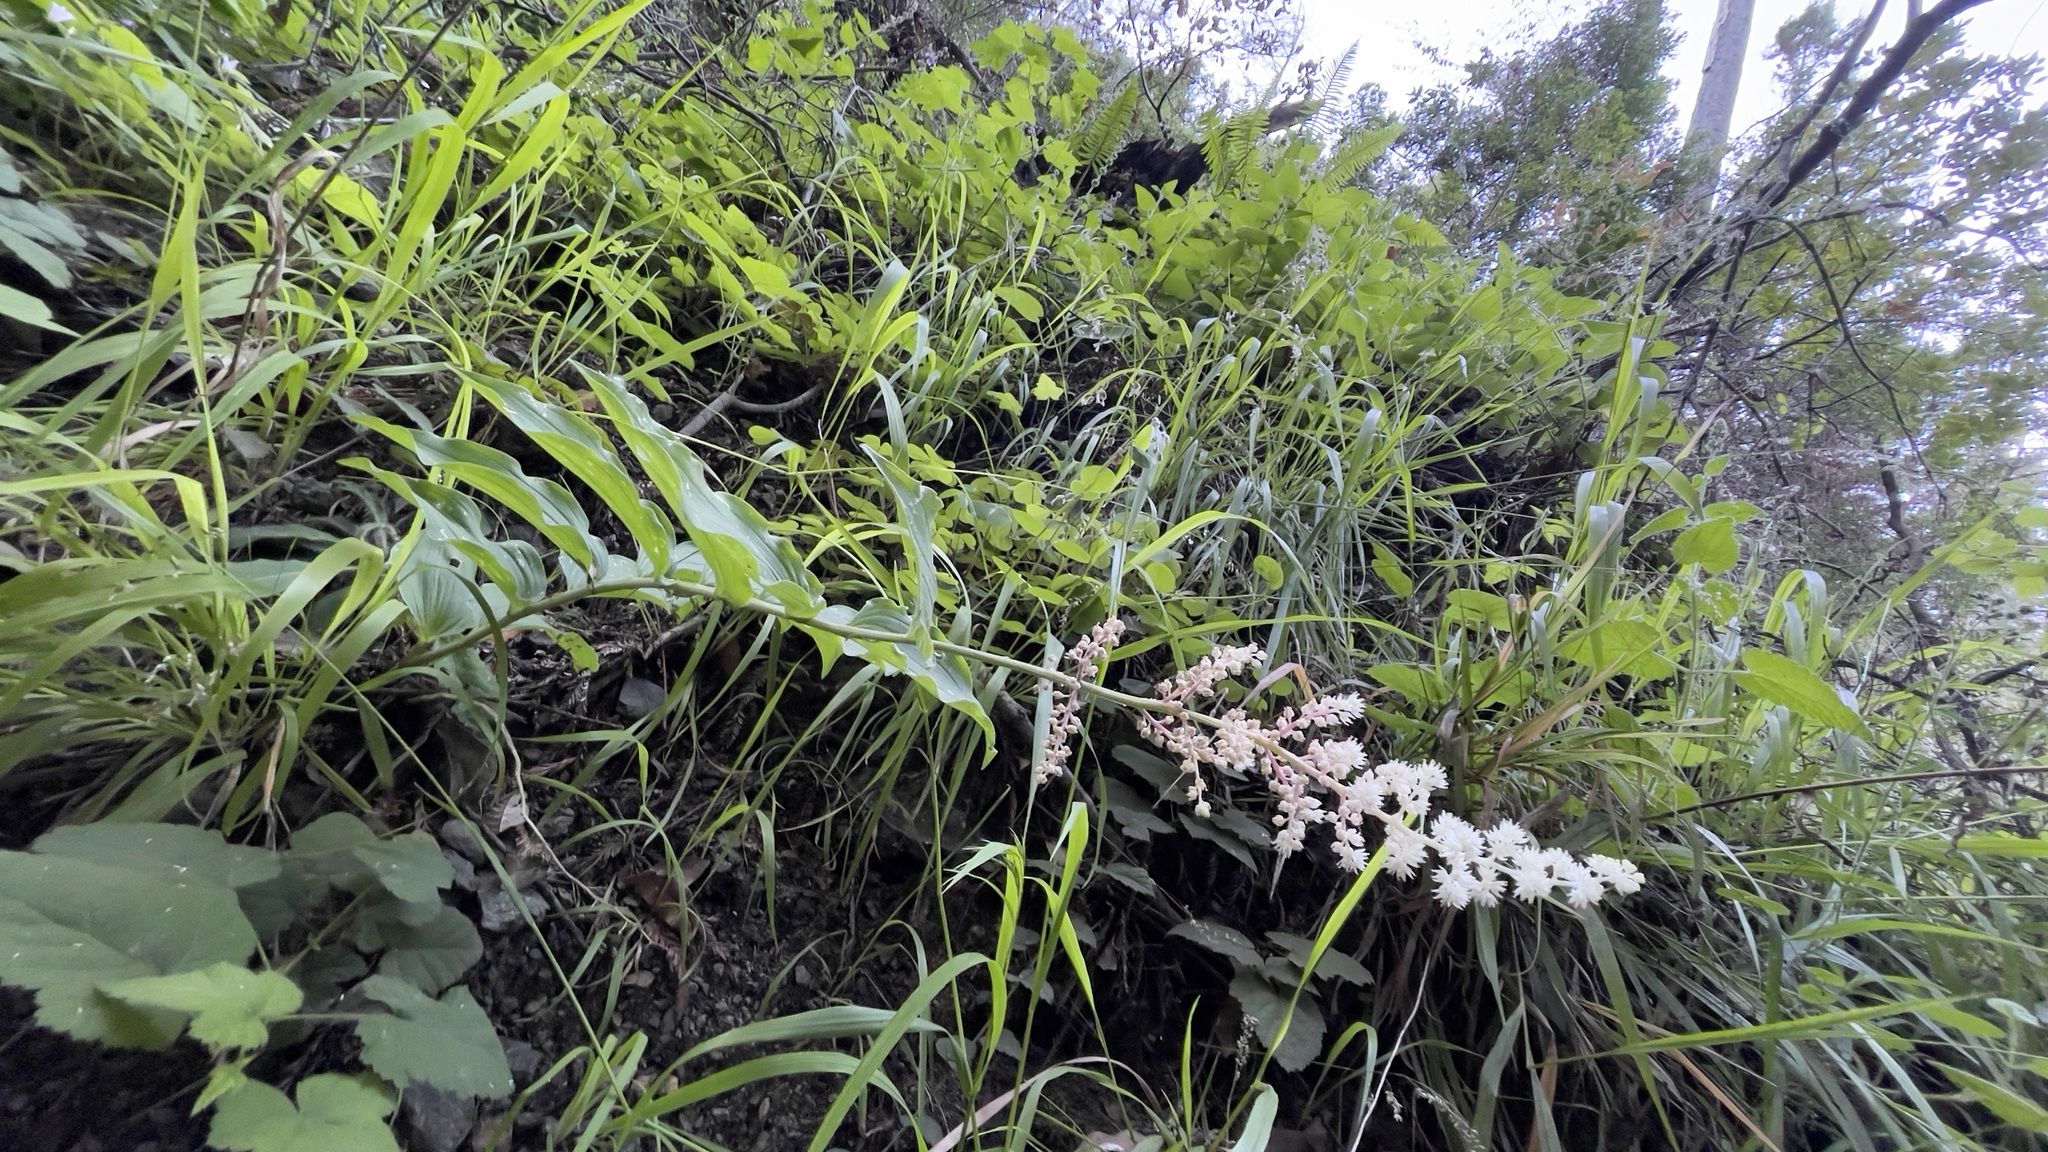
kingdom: Plantae
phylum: Tracheophyta
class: Liliopsida
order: Asparagales
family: Asparagaceae
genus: Maianthemum
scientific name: Maianthemum racemosum
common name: False spikenard
